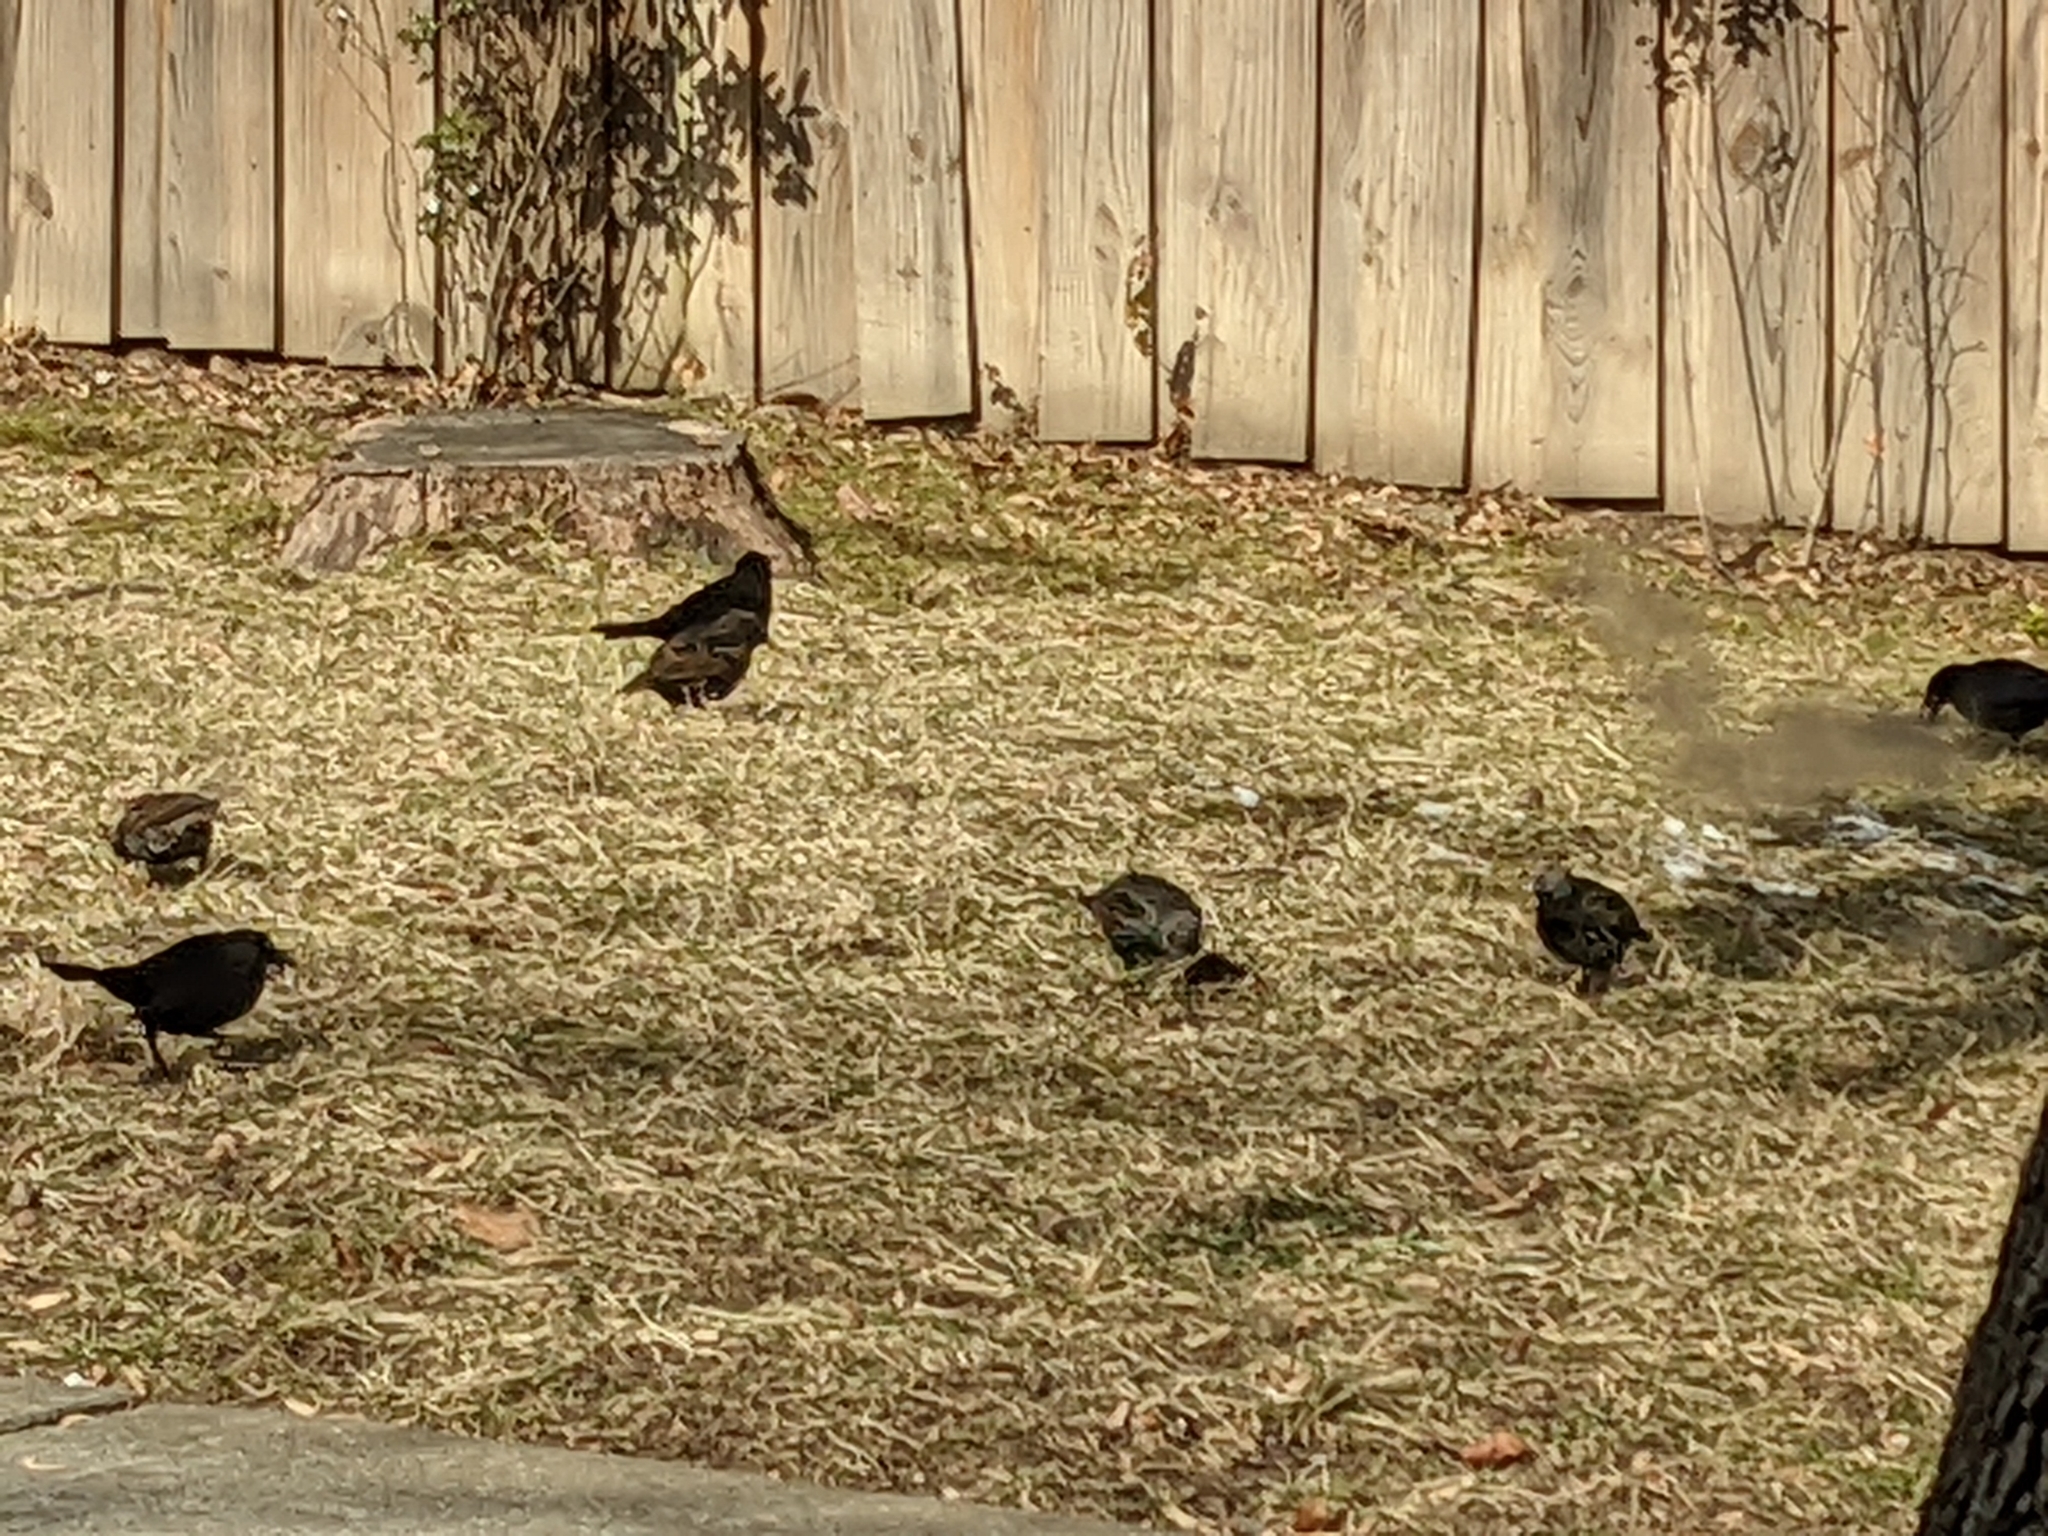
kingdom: Animalia
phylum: Chordata
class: Aves
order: Passeriformes
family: Icteridae
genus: Quiscalus
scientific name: Quiscalus quiscula
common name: Common grackle
